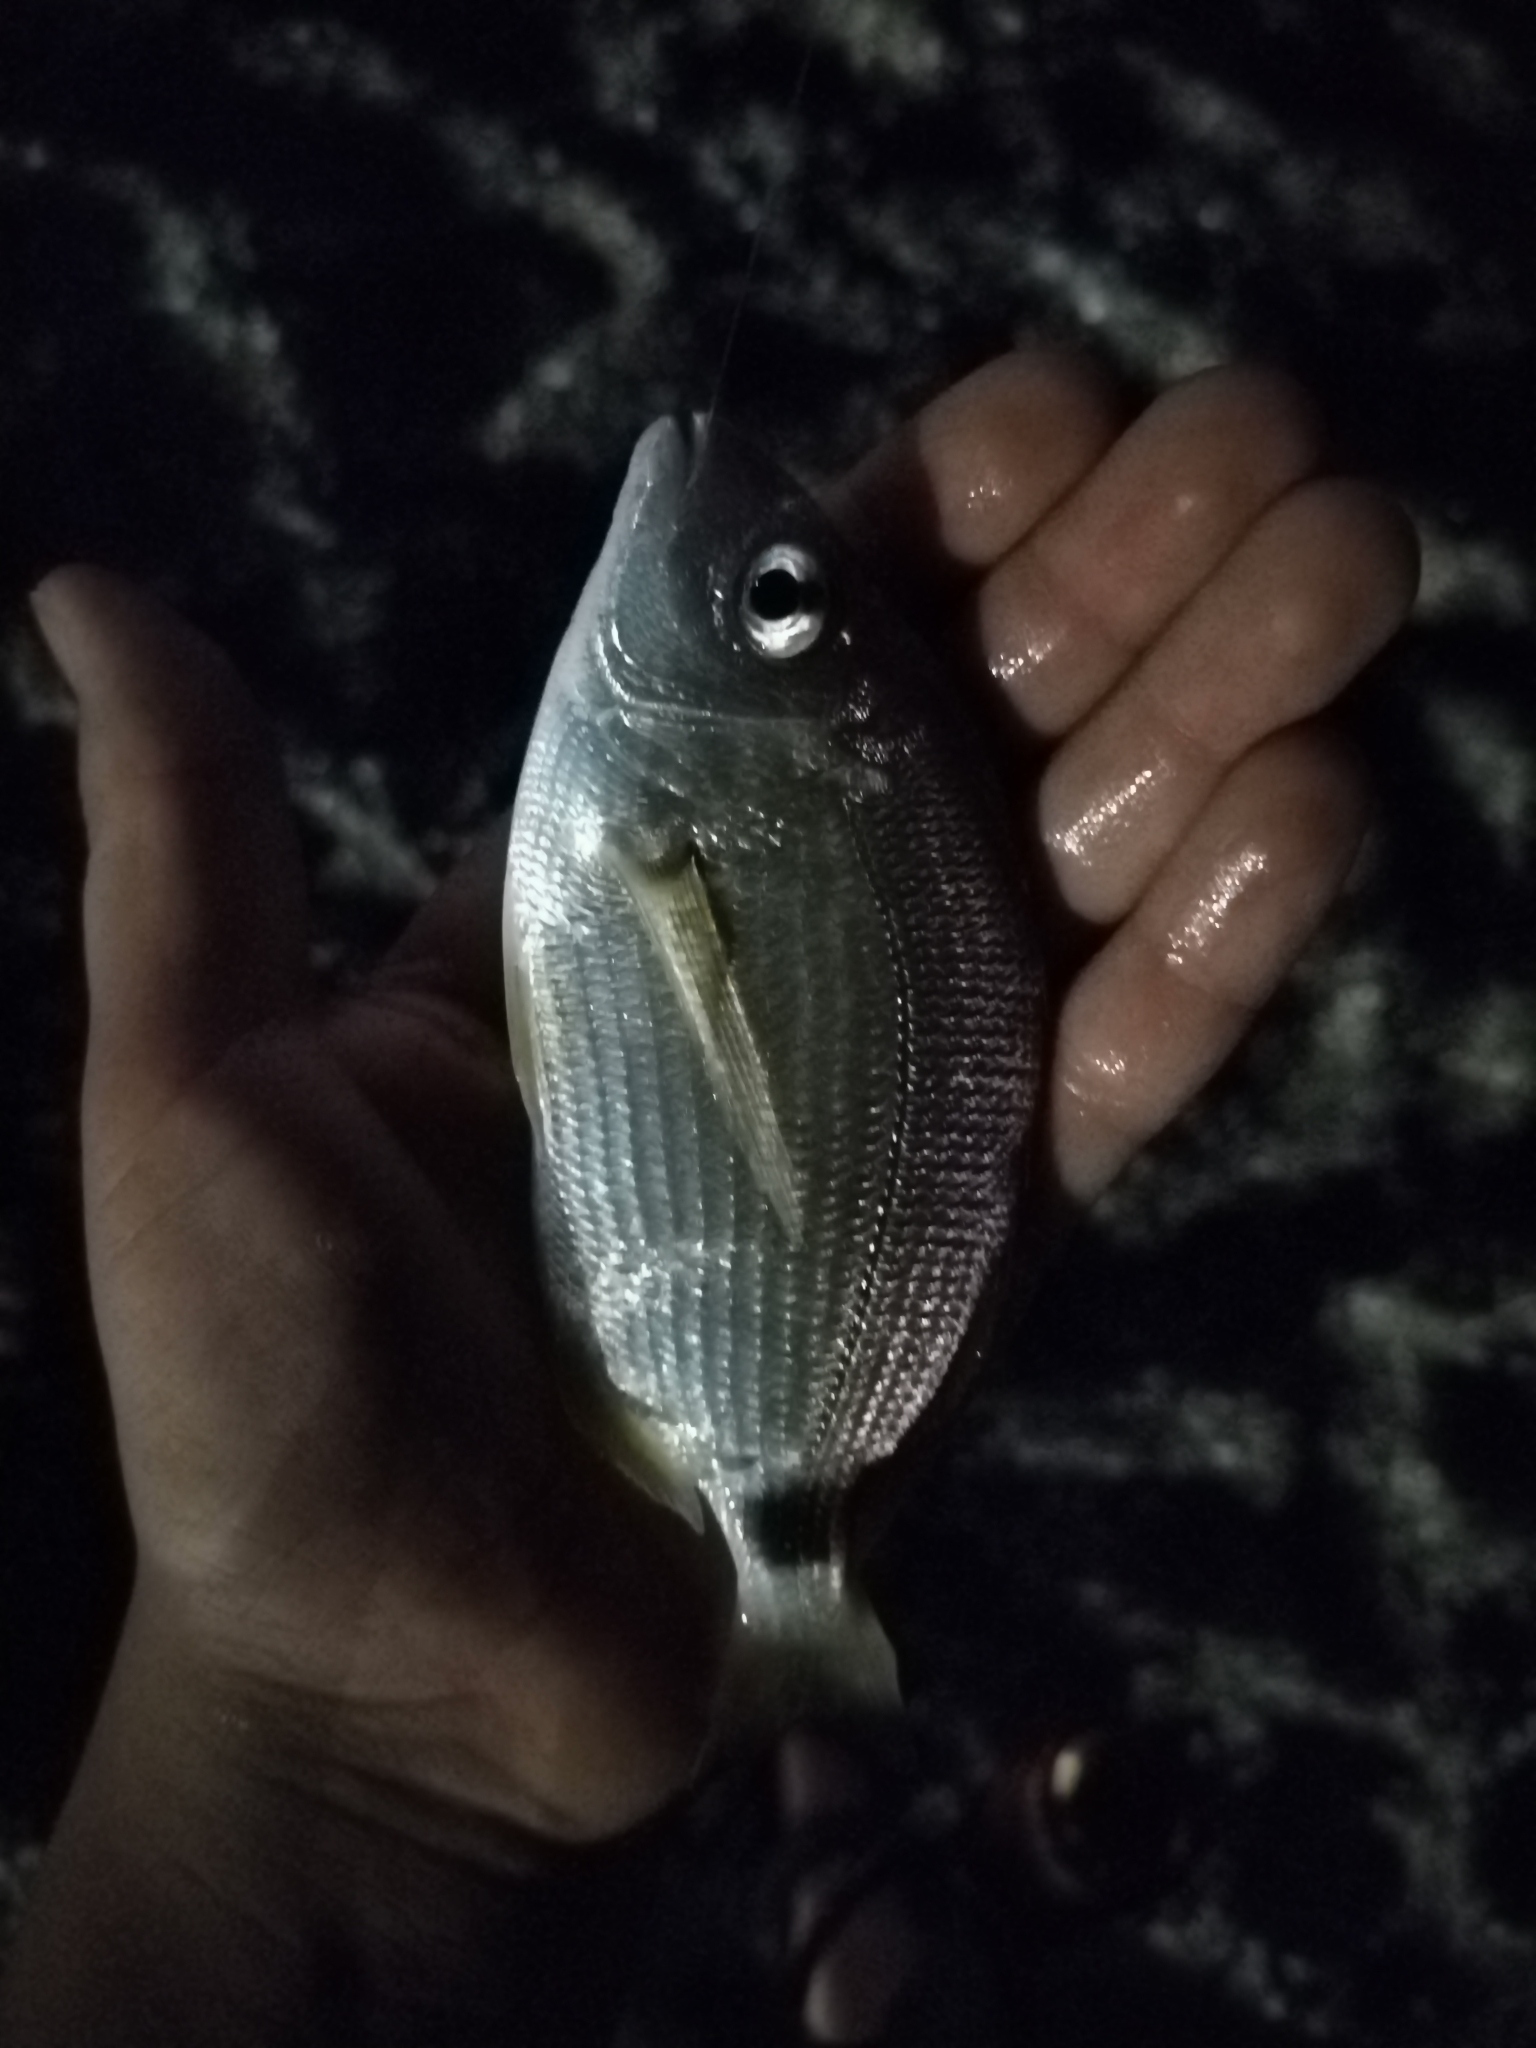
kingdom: Animalia
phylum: Chordata
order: Perciformes
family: Sparidae
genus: Diplodus
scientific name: Diplodus annularis
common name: Annular seabream
